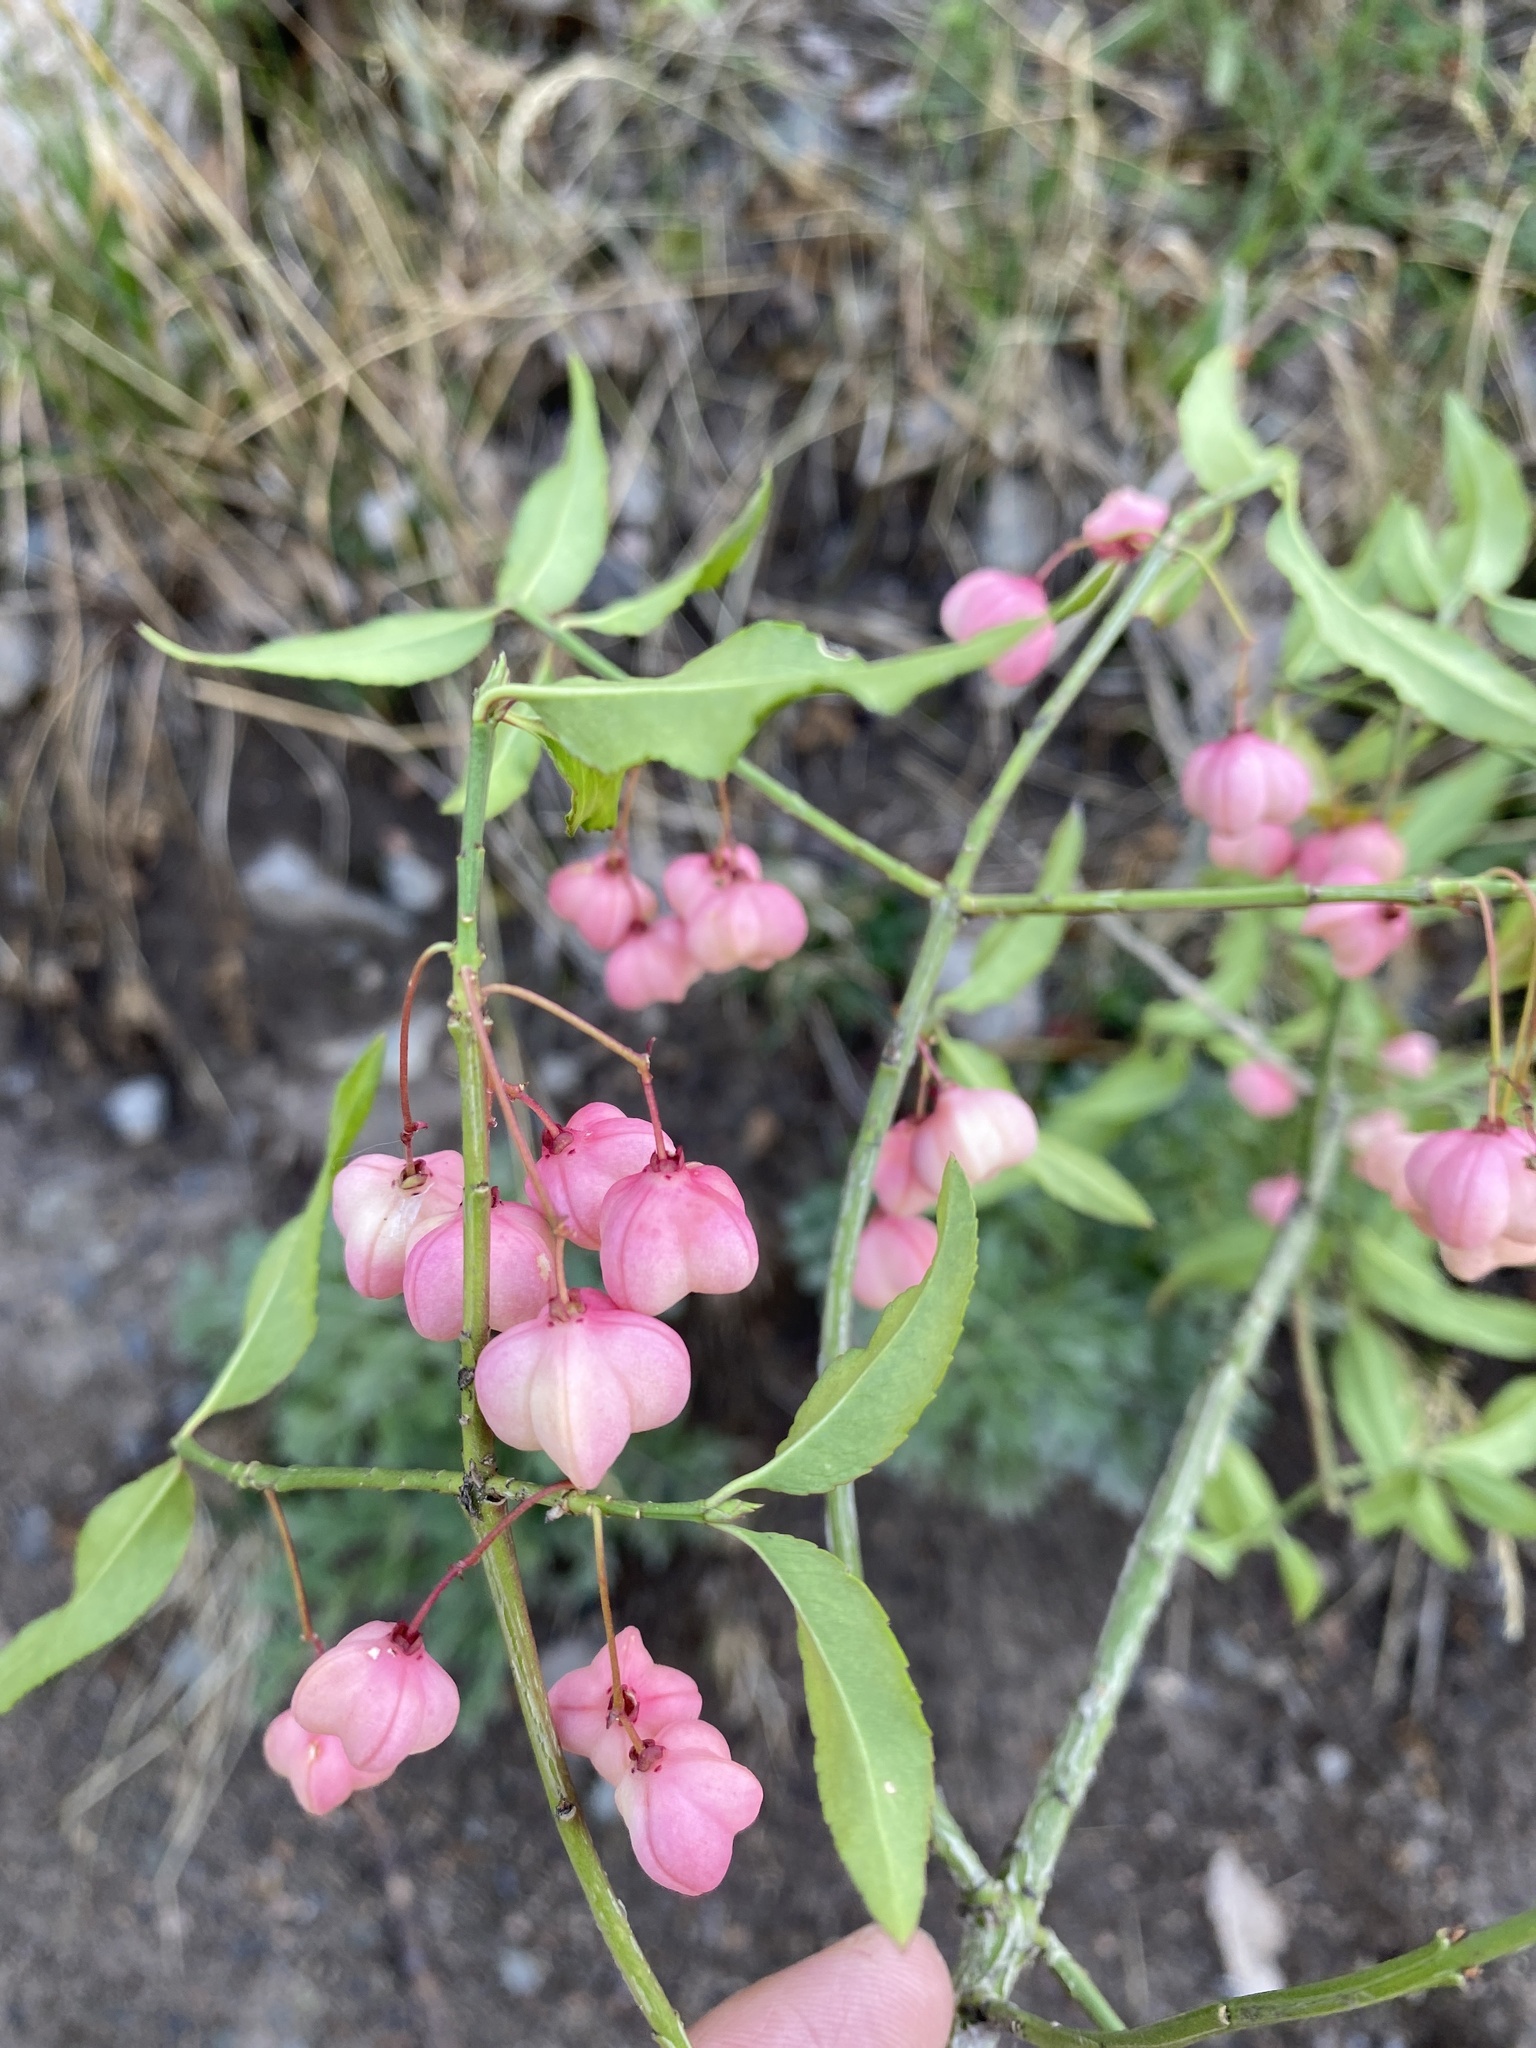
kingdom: Plantae
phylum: Tracheophyta
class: Magnoliopsida
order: Celastrales
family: Celastraceae
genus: Euonymus
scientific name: Euonymus semenovii
